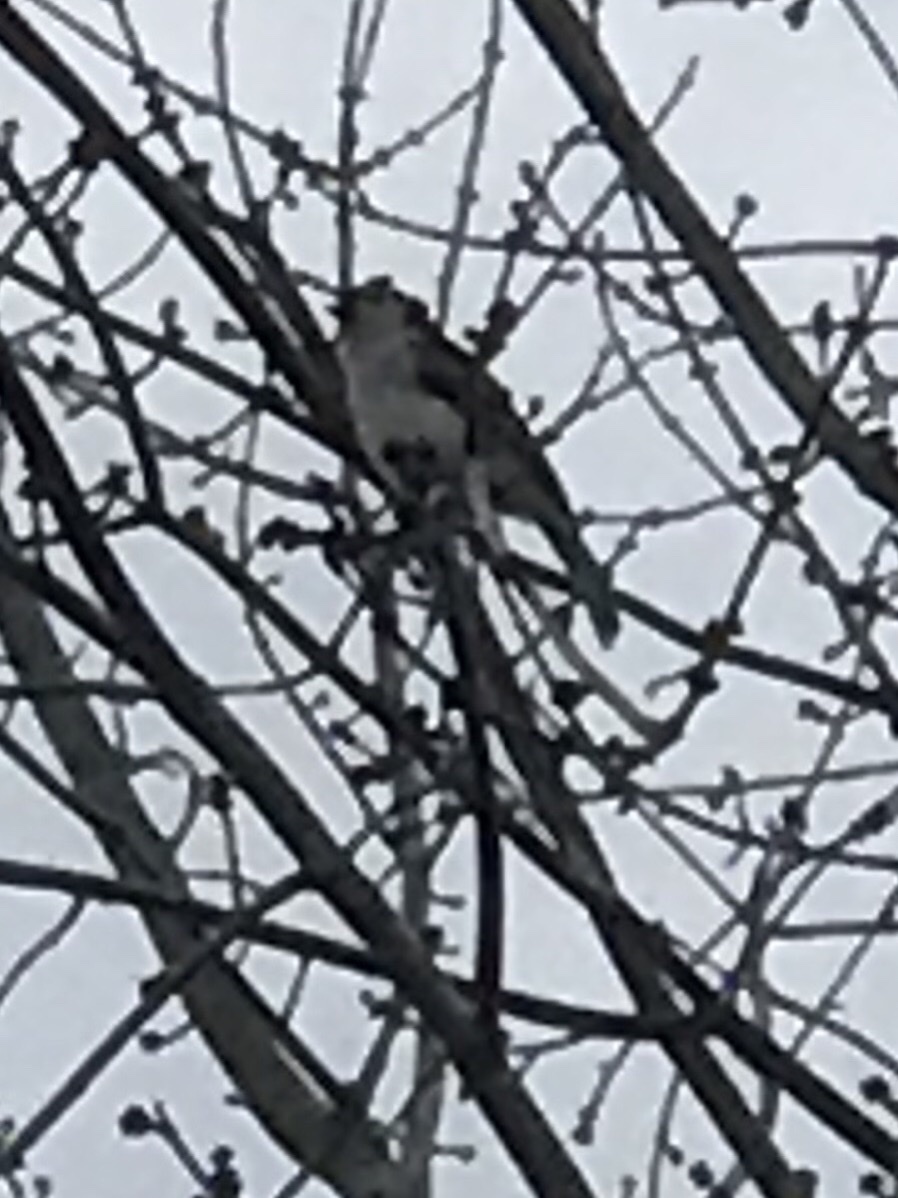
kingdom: Animalia
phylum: Chordata
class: Aves
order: Passeriformes
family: Paridae
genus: Baeolophus
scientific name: Baeolophus bicolor
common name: Tufted titmouse
